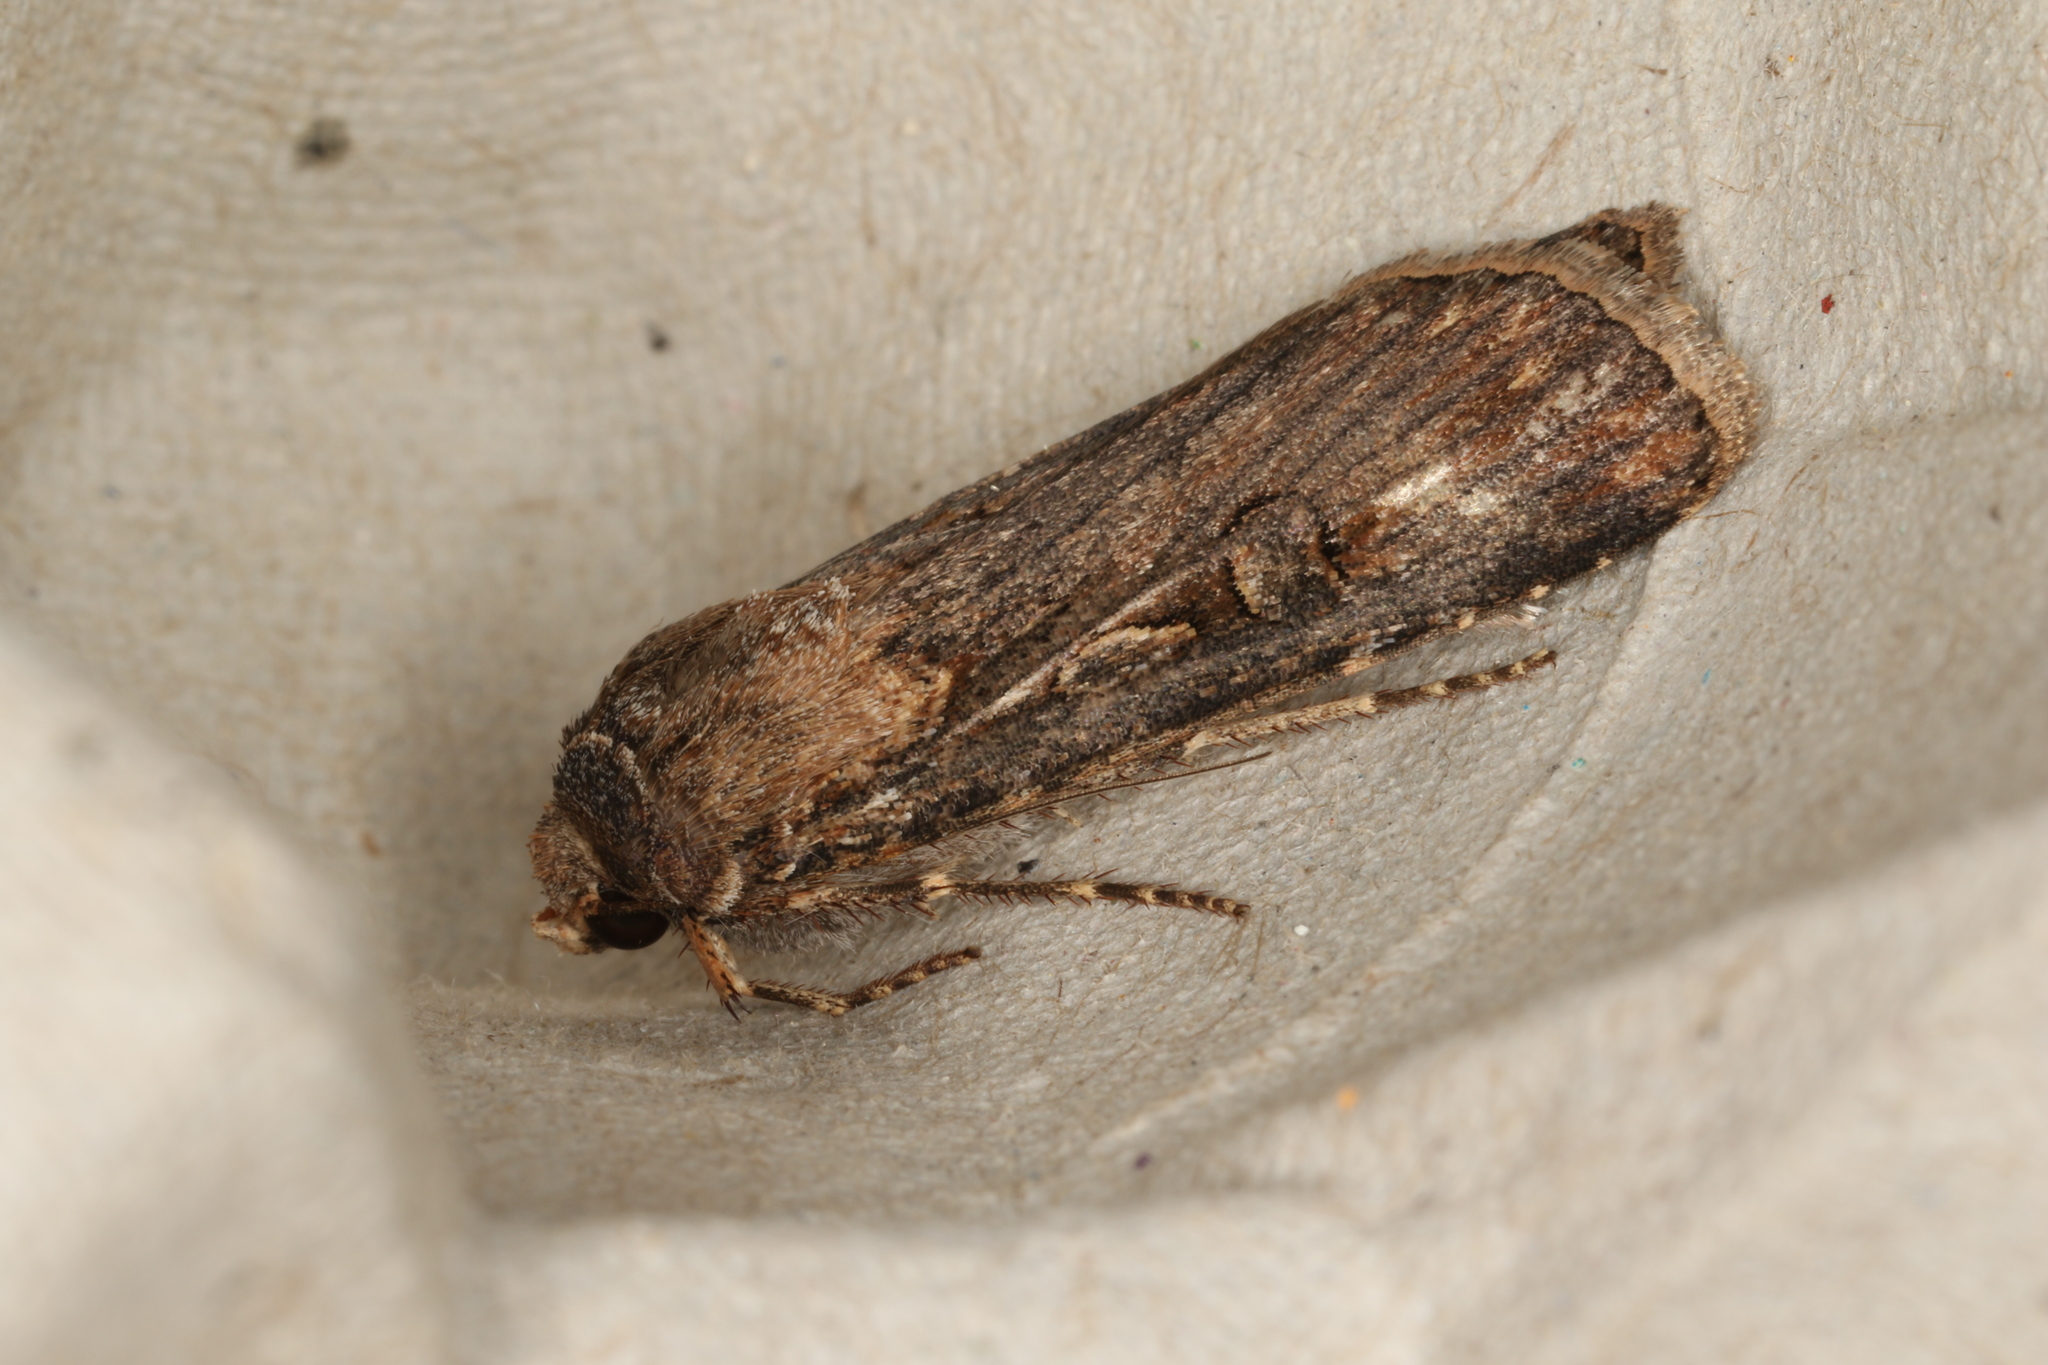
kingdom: Animalia
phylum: Arthropoda
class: Insecta
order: Lepidoptera
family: Noctuidae
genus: Agrotis
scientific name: Agrotis infusa
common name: Bogong moth
